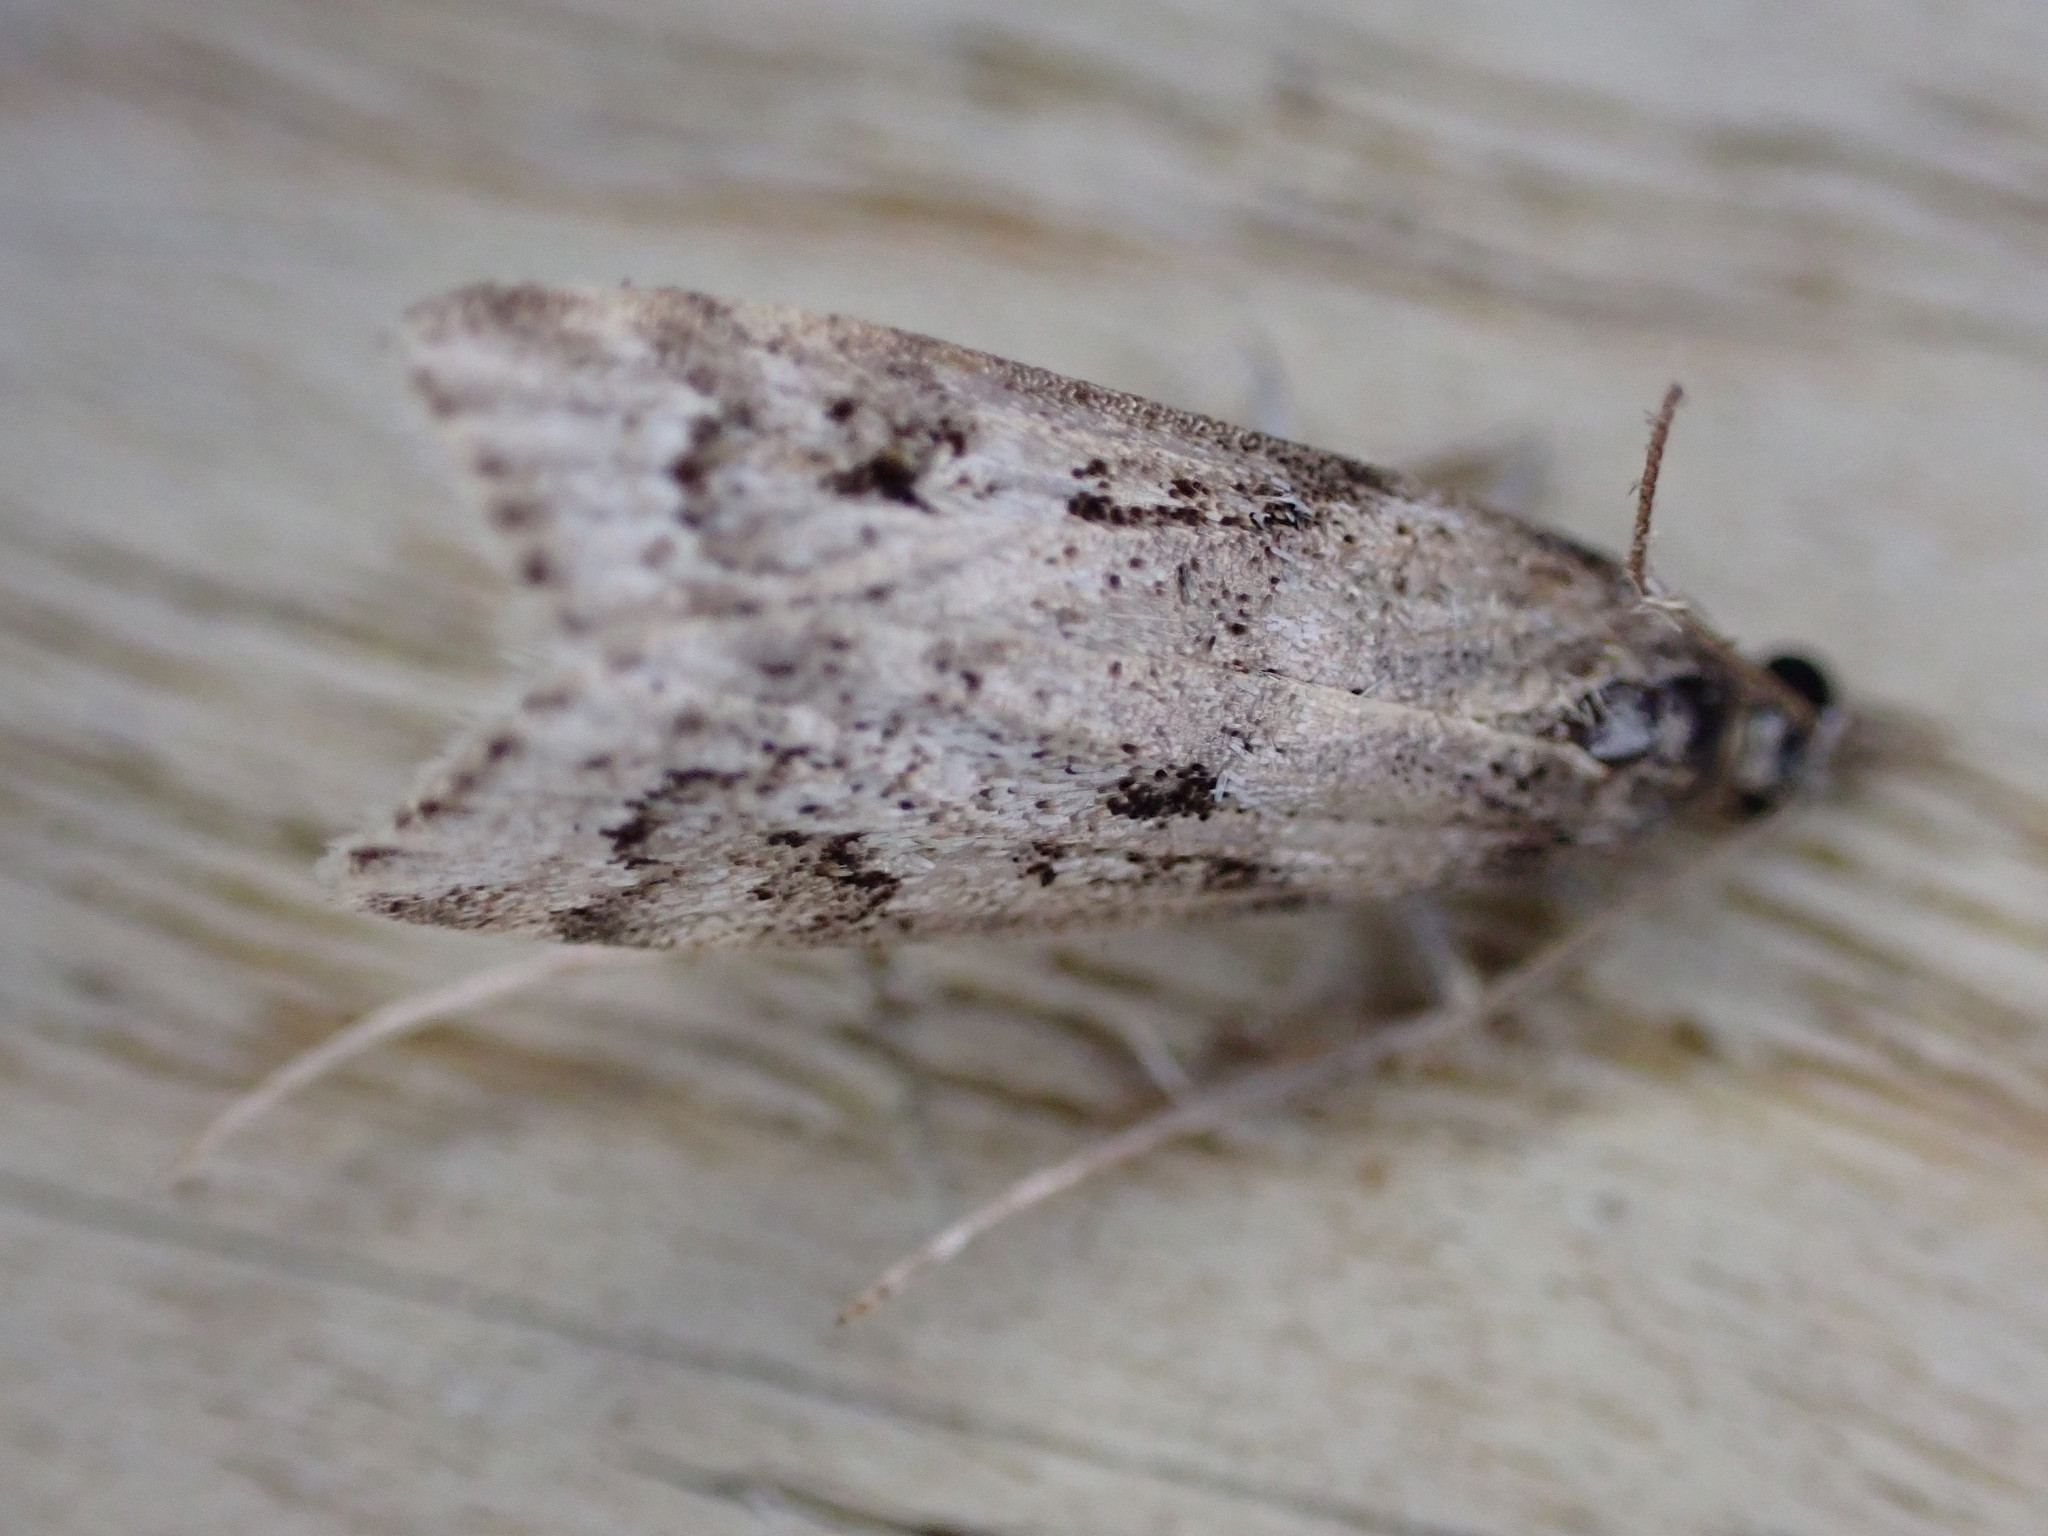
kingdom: Animalia
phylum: Arthropoda
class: Insecta
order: Lepidoptera
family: Crambidae
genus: Eudonia
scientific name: Eudonia angustea
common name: Narrow-winged grey
